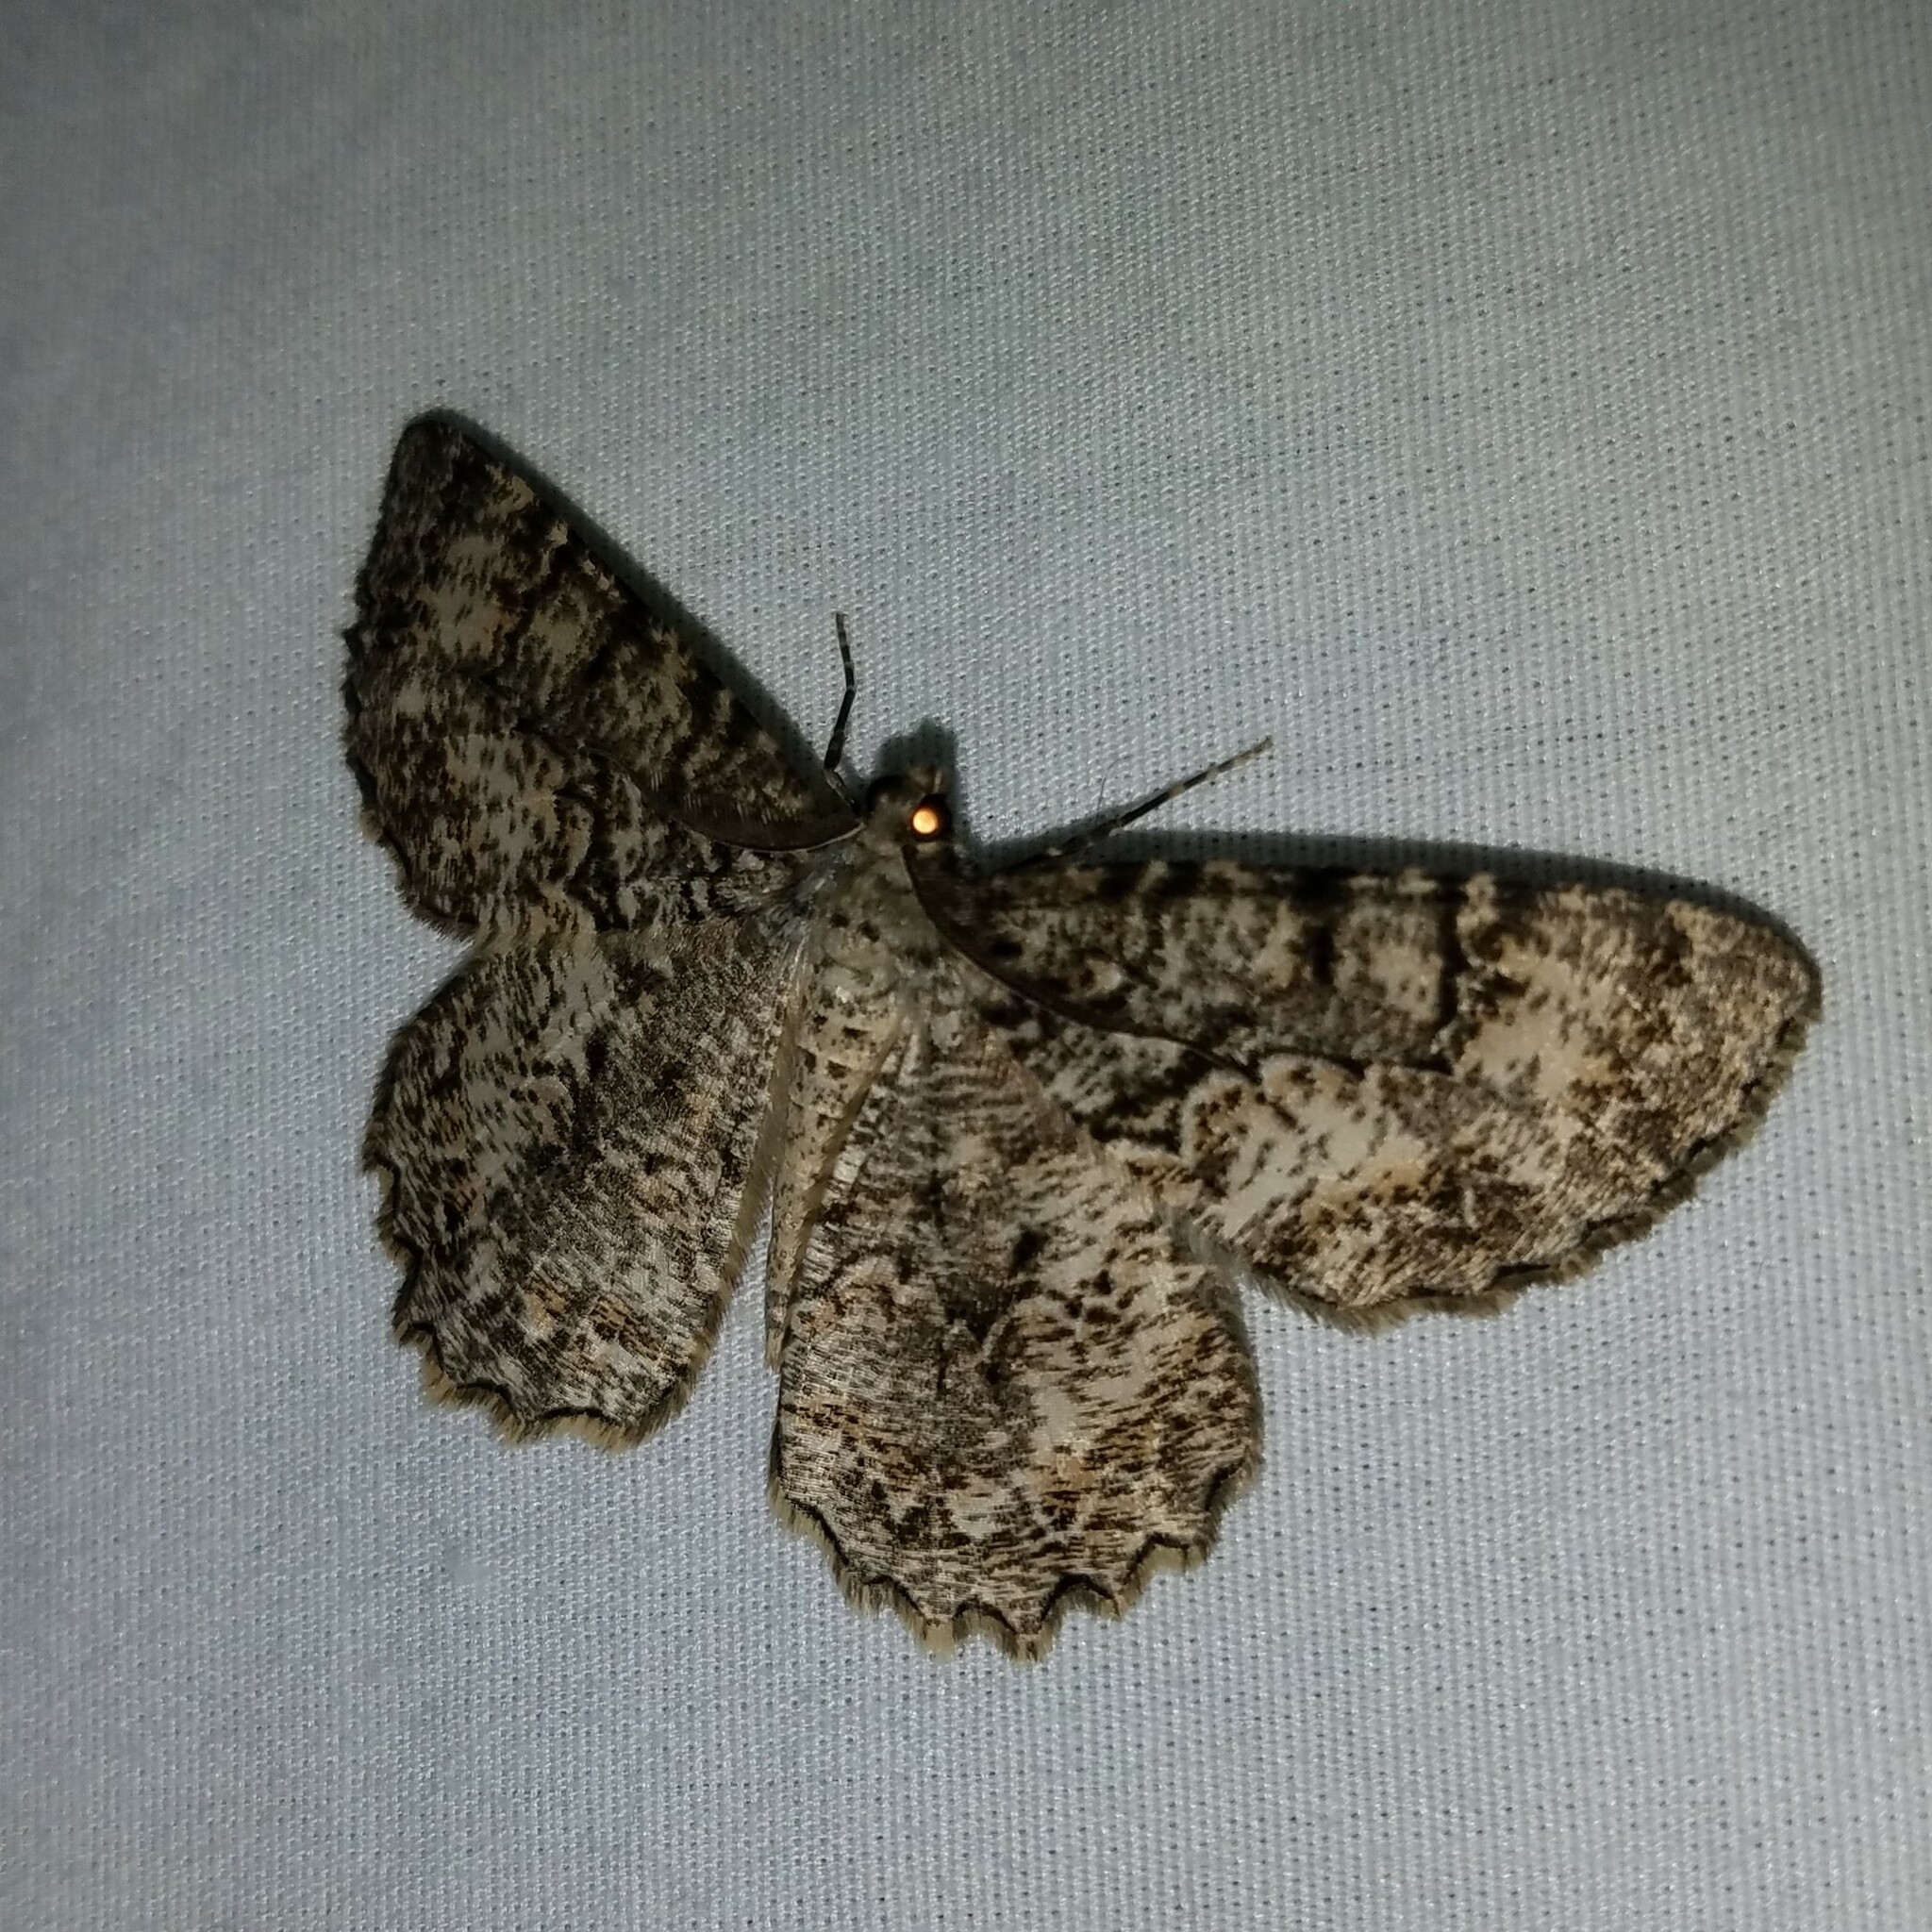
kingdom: Animalia
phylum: Arthropoda
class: Insecta
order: Lepidoptera
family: Geometridae
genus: Epimecis
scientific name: Epimecis hortaria
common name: Tulip-tree beauty
